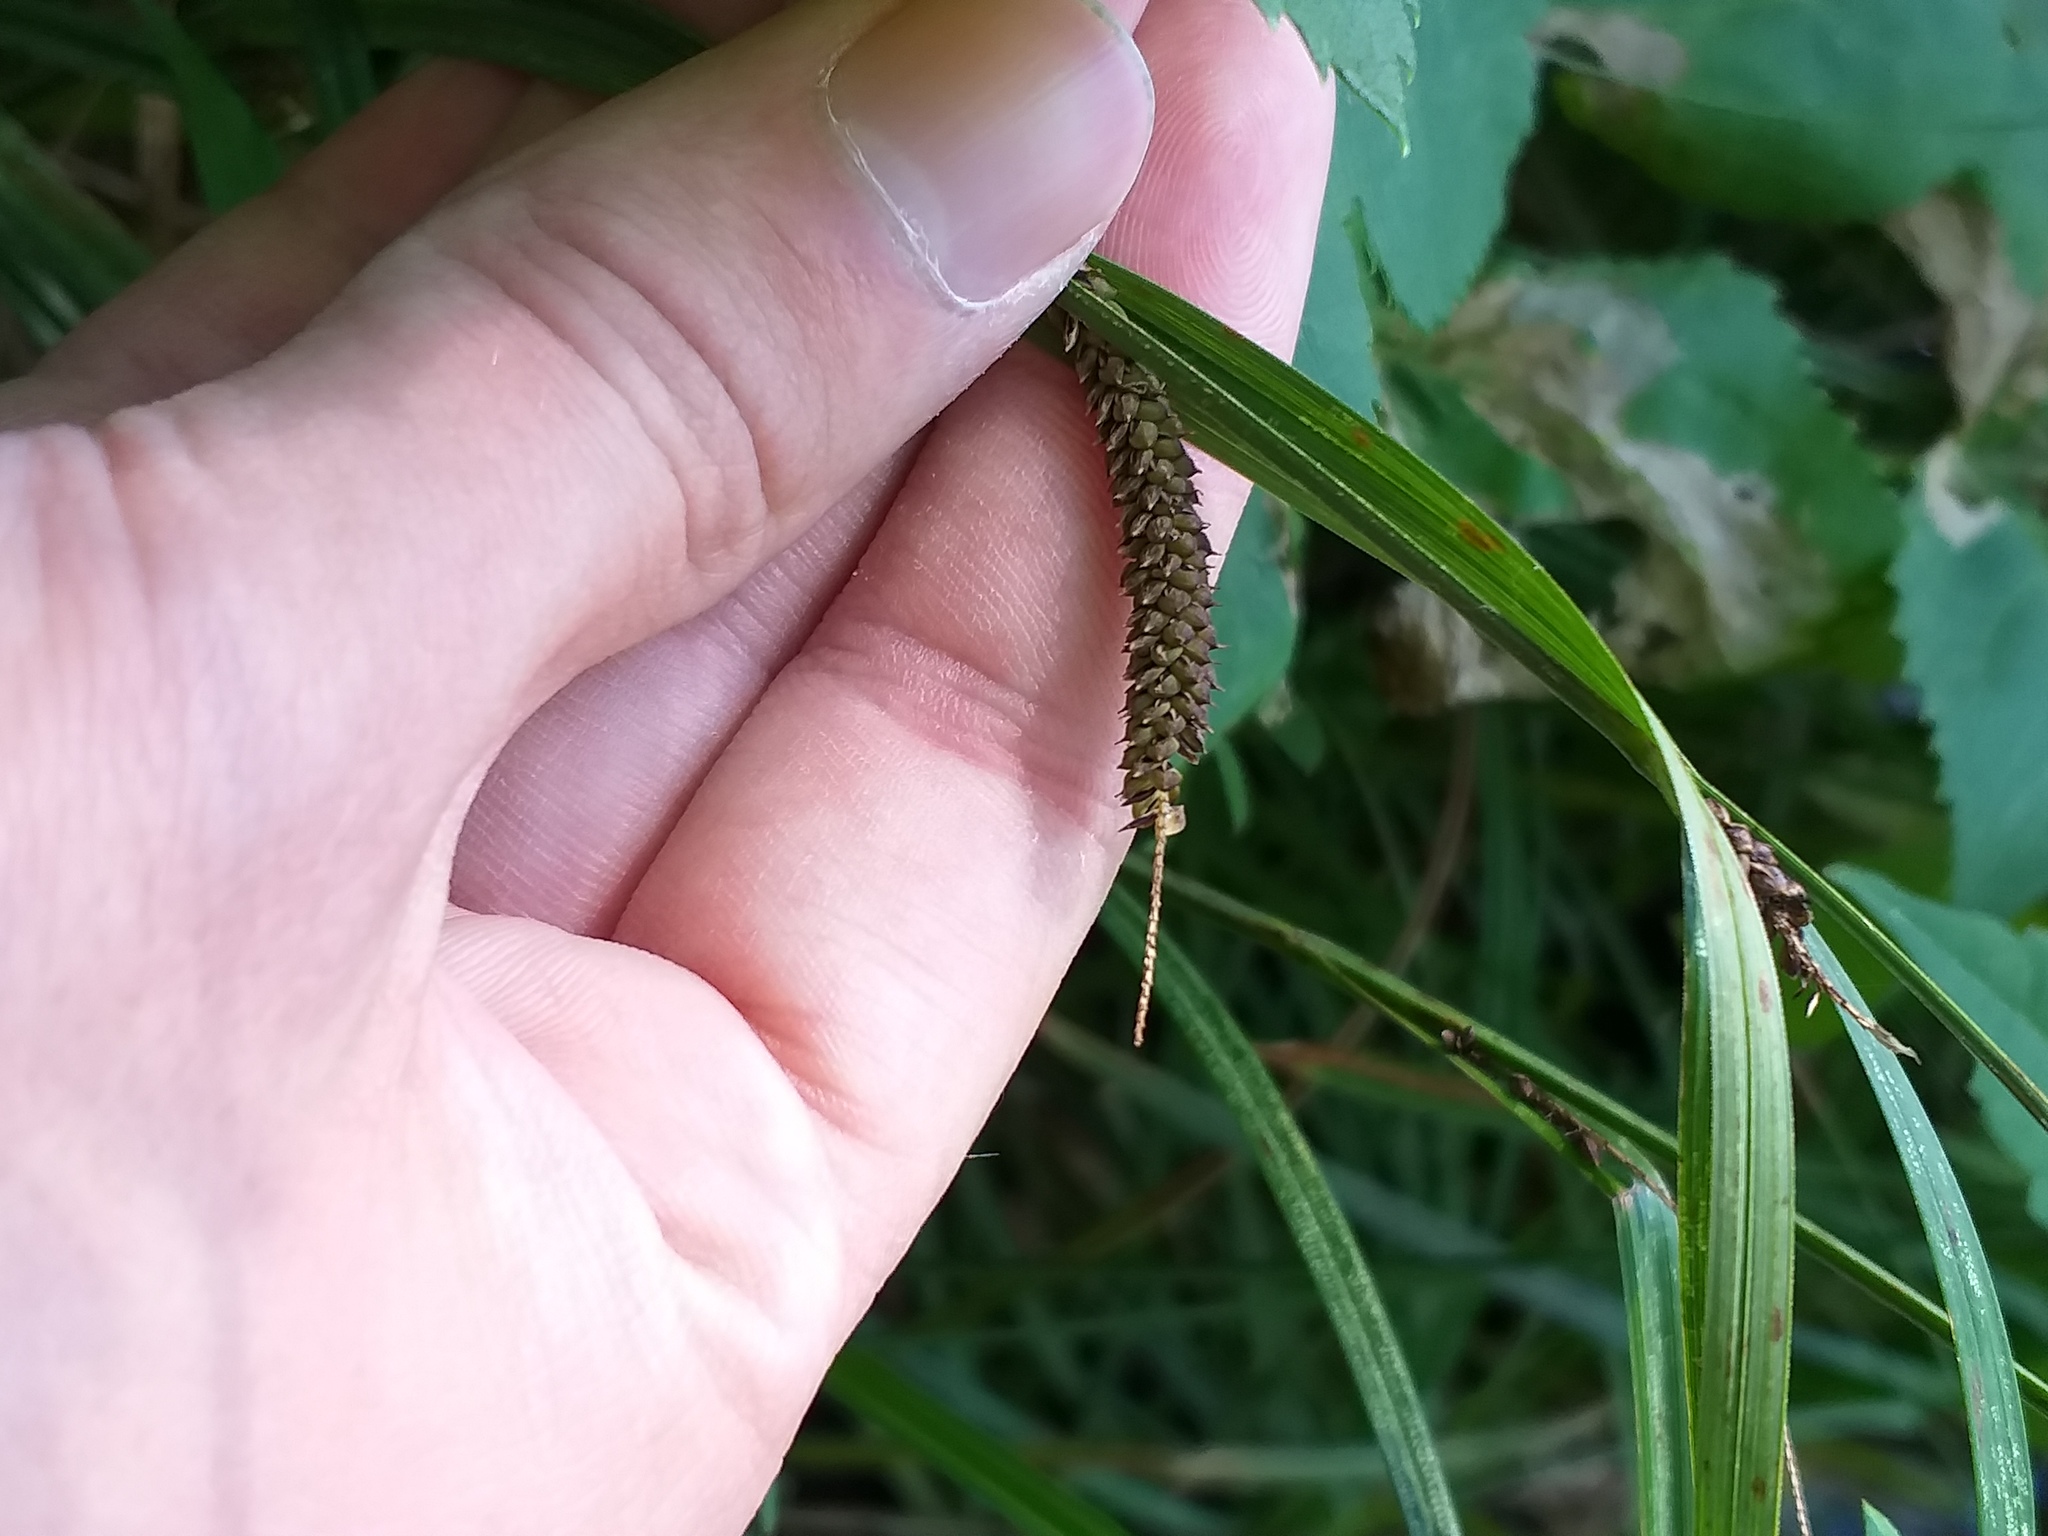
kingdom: Plantae
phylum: Tracheophyta
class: Liliopsida
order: Poales
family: Cyperaceae
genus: Carex
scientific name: Carex acuta
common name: Slender tufted-sedge
